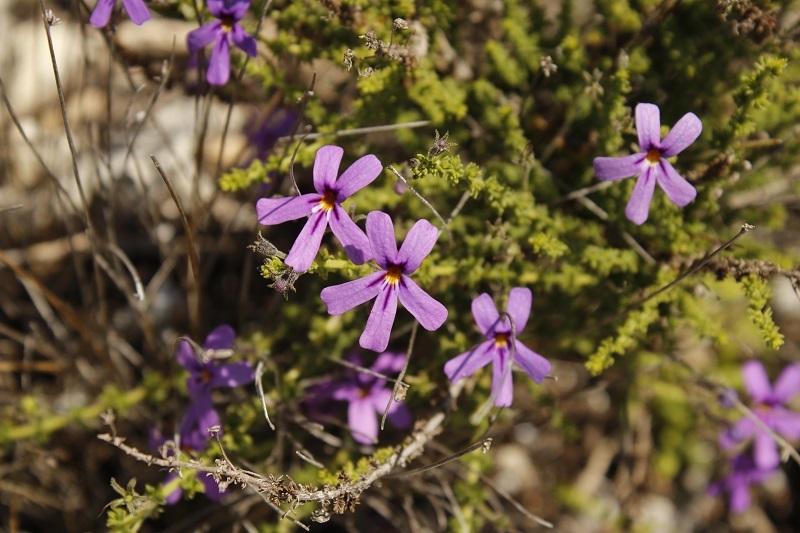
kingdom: Plantae
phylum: Tracheophyta
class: Magnoliopsida
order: Lamiales
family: Scrophulariaceae
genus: Jamesbrittenia
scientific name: Jamesbrittenia microphylla
